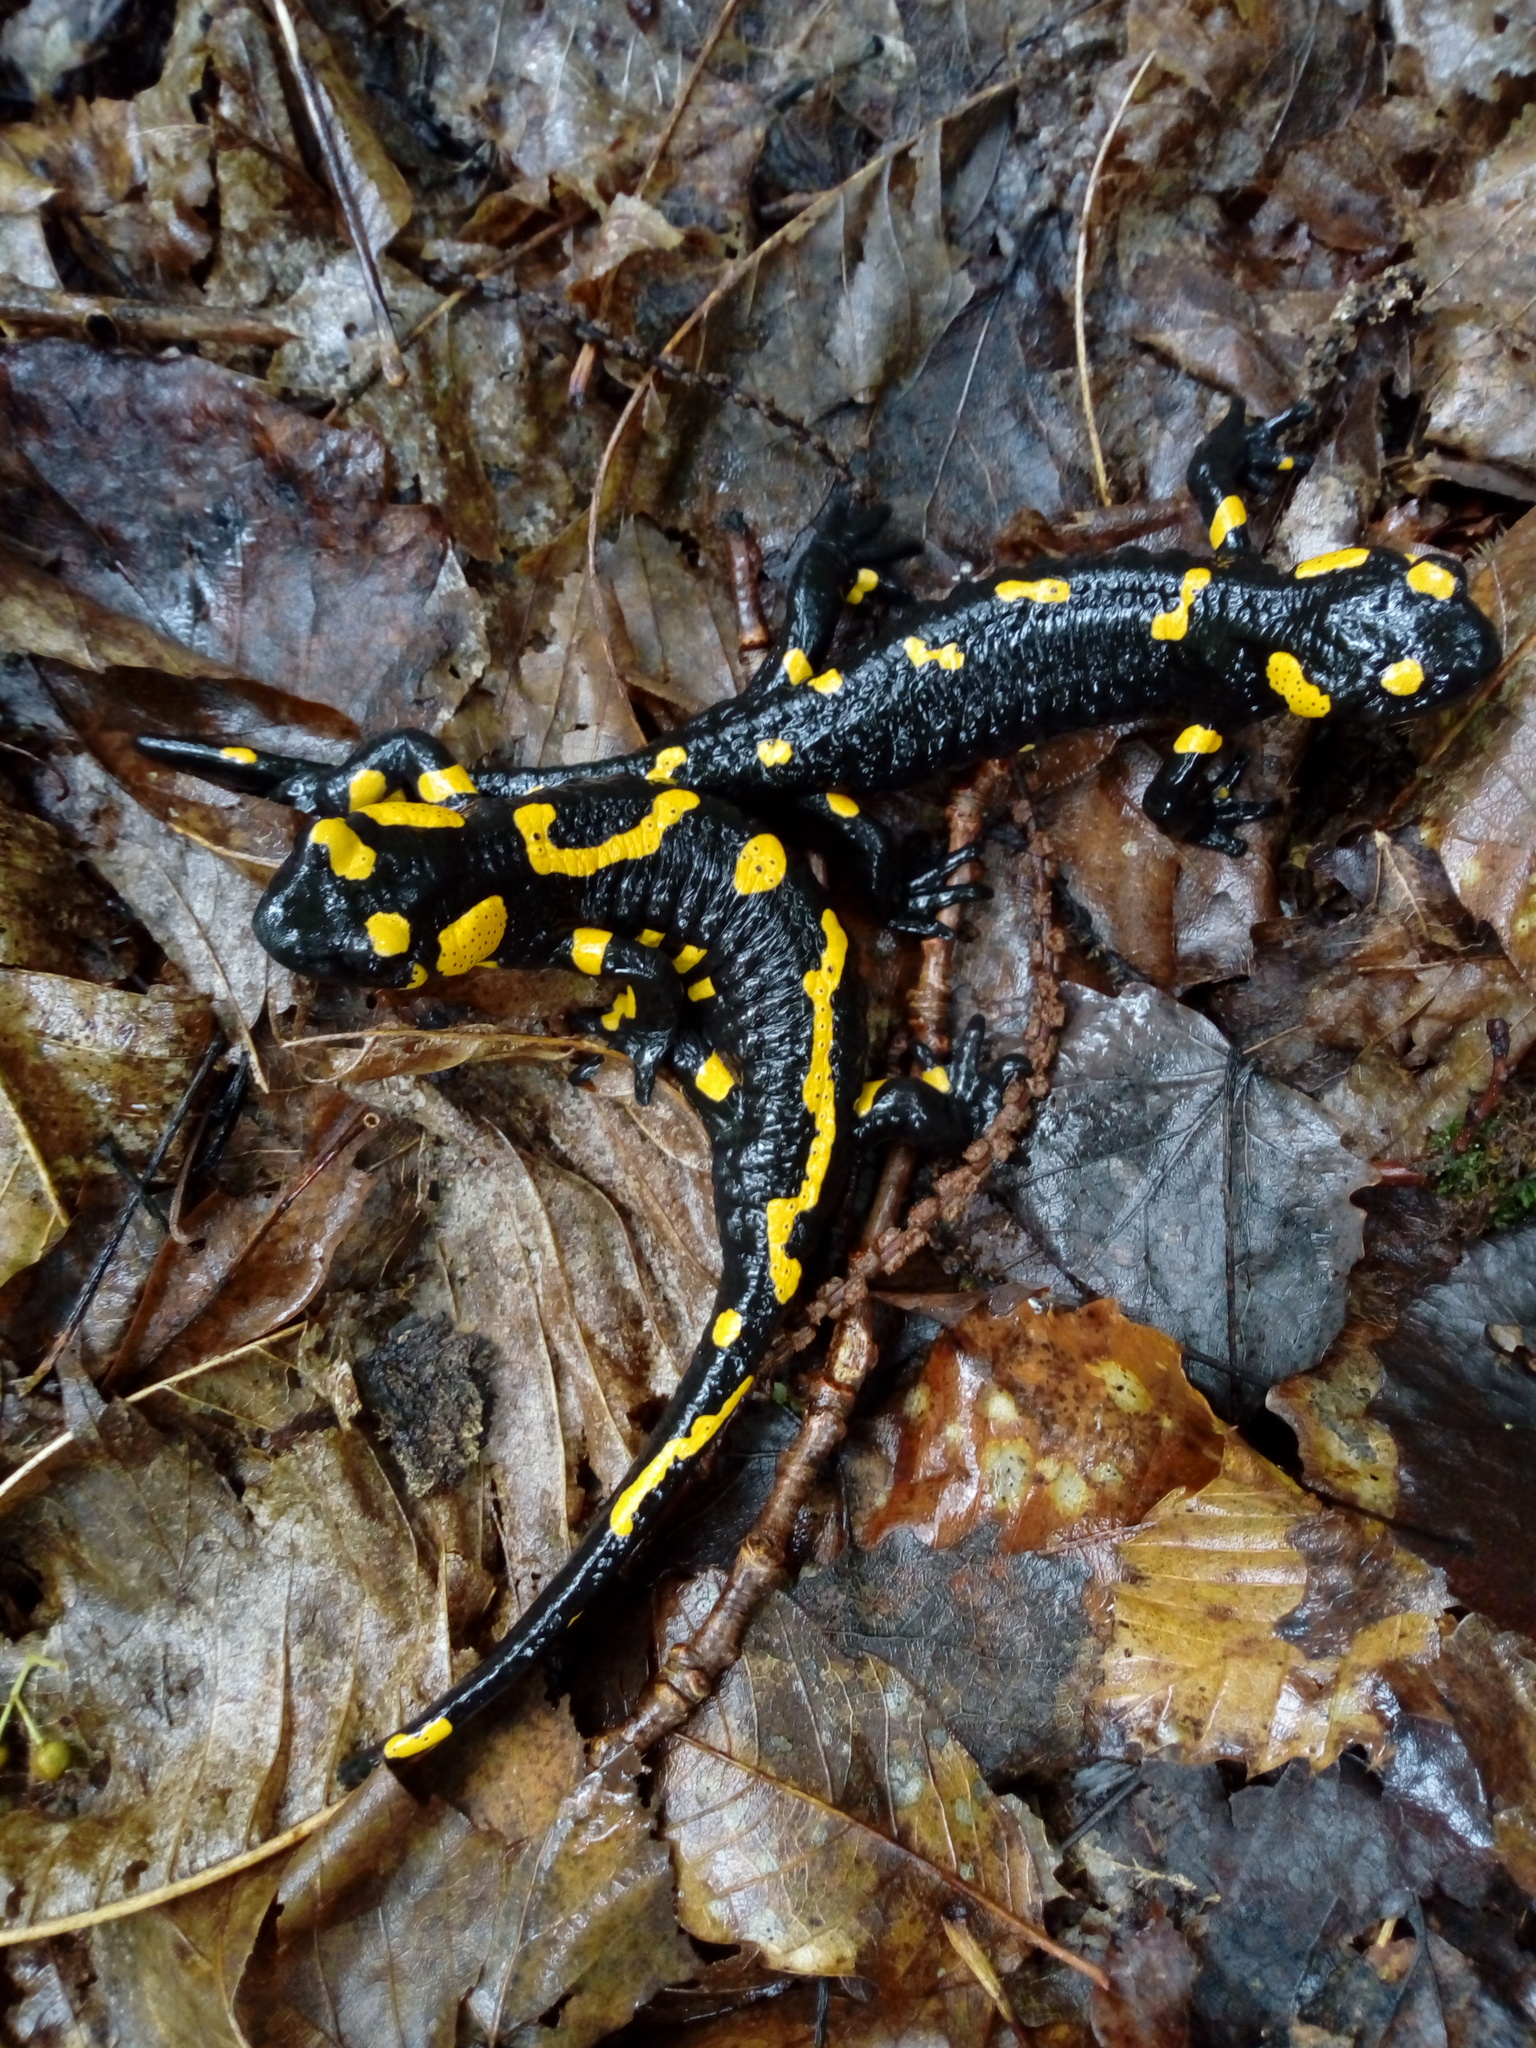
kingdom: Animalia
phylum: Chordata
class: Amphibia
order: Caudata
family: Salamandridae
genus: Salamandra
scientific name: Salamandra salamandra
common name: Fire salamander
